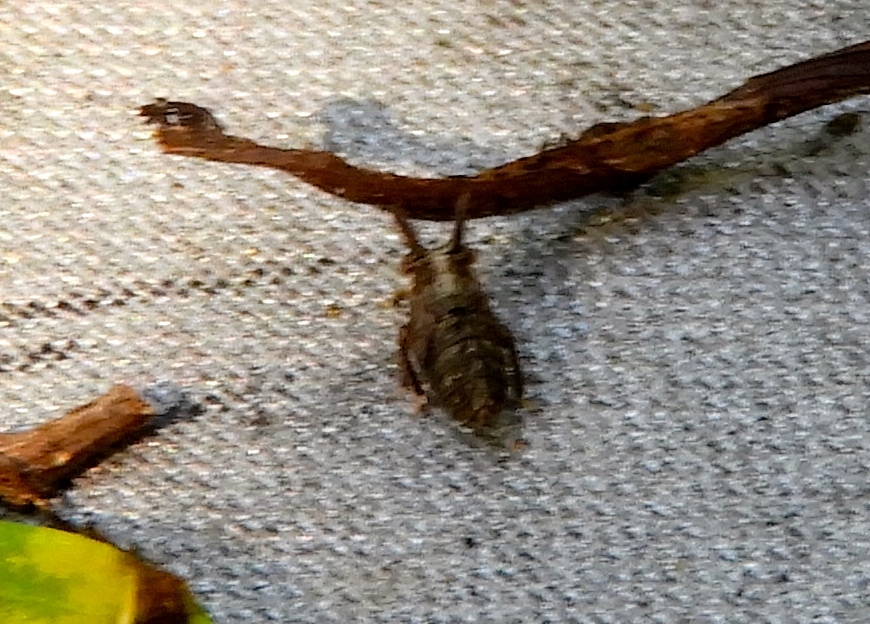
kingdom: Animalia
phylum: Arthropoda
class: Insecta
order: Hemiptera
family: Cicadellidae
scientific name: Cicadellidae
